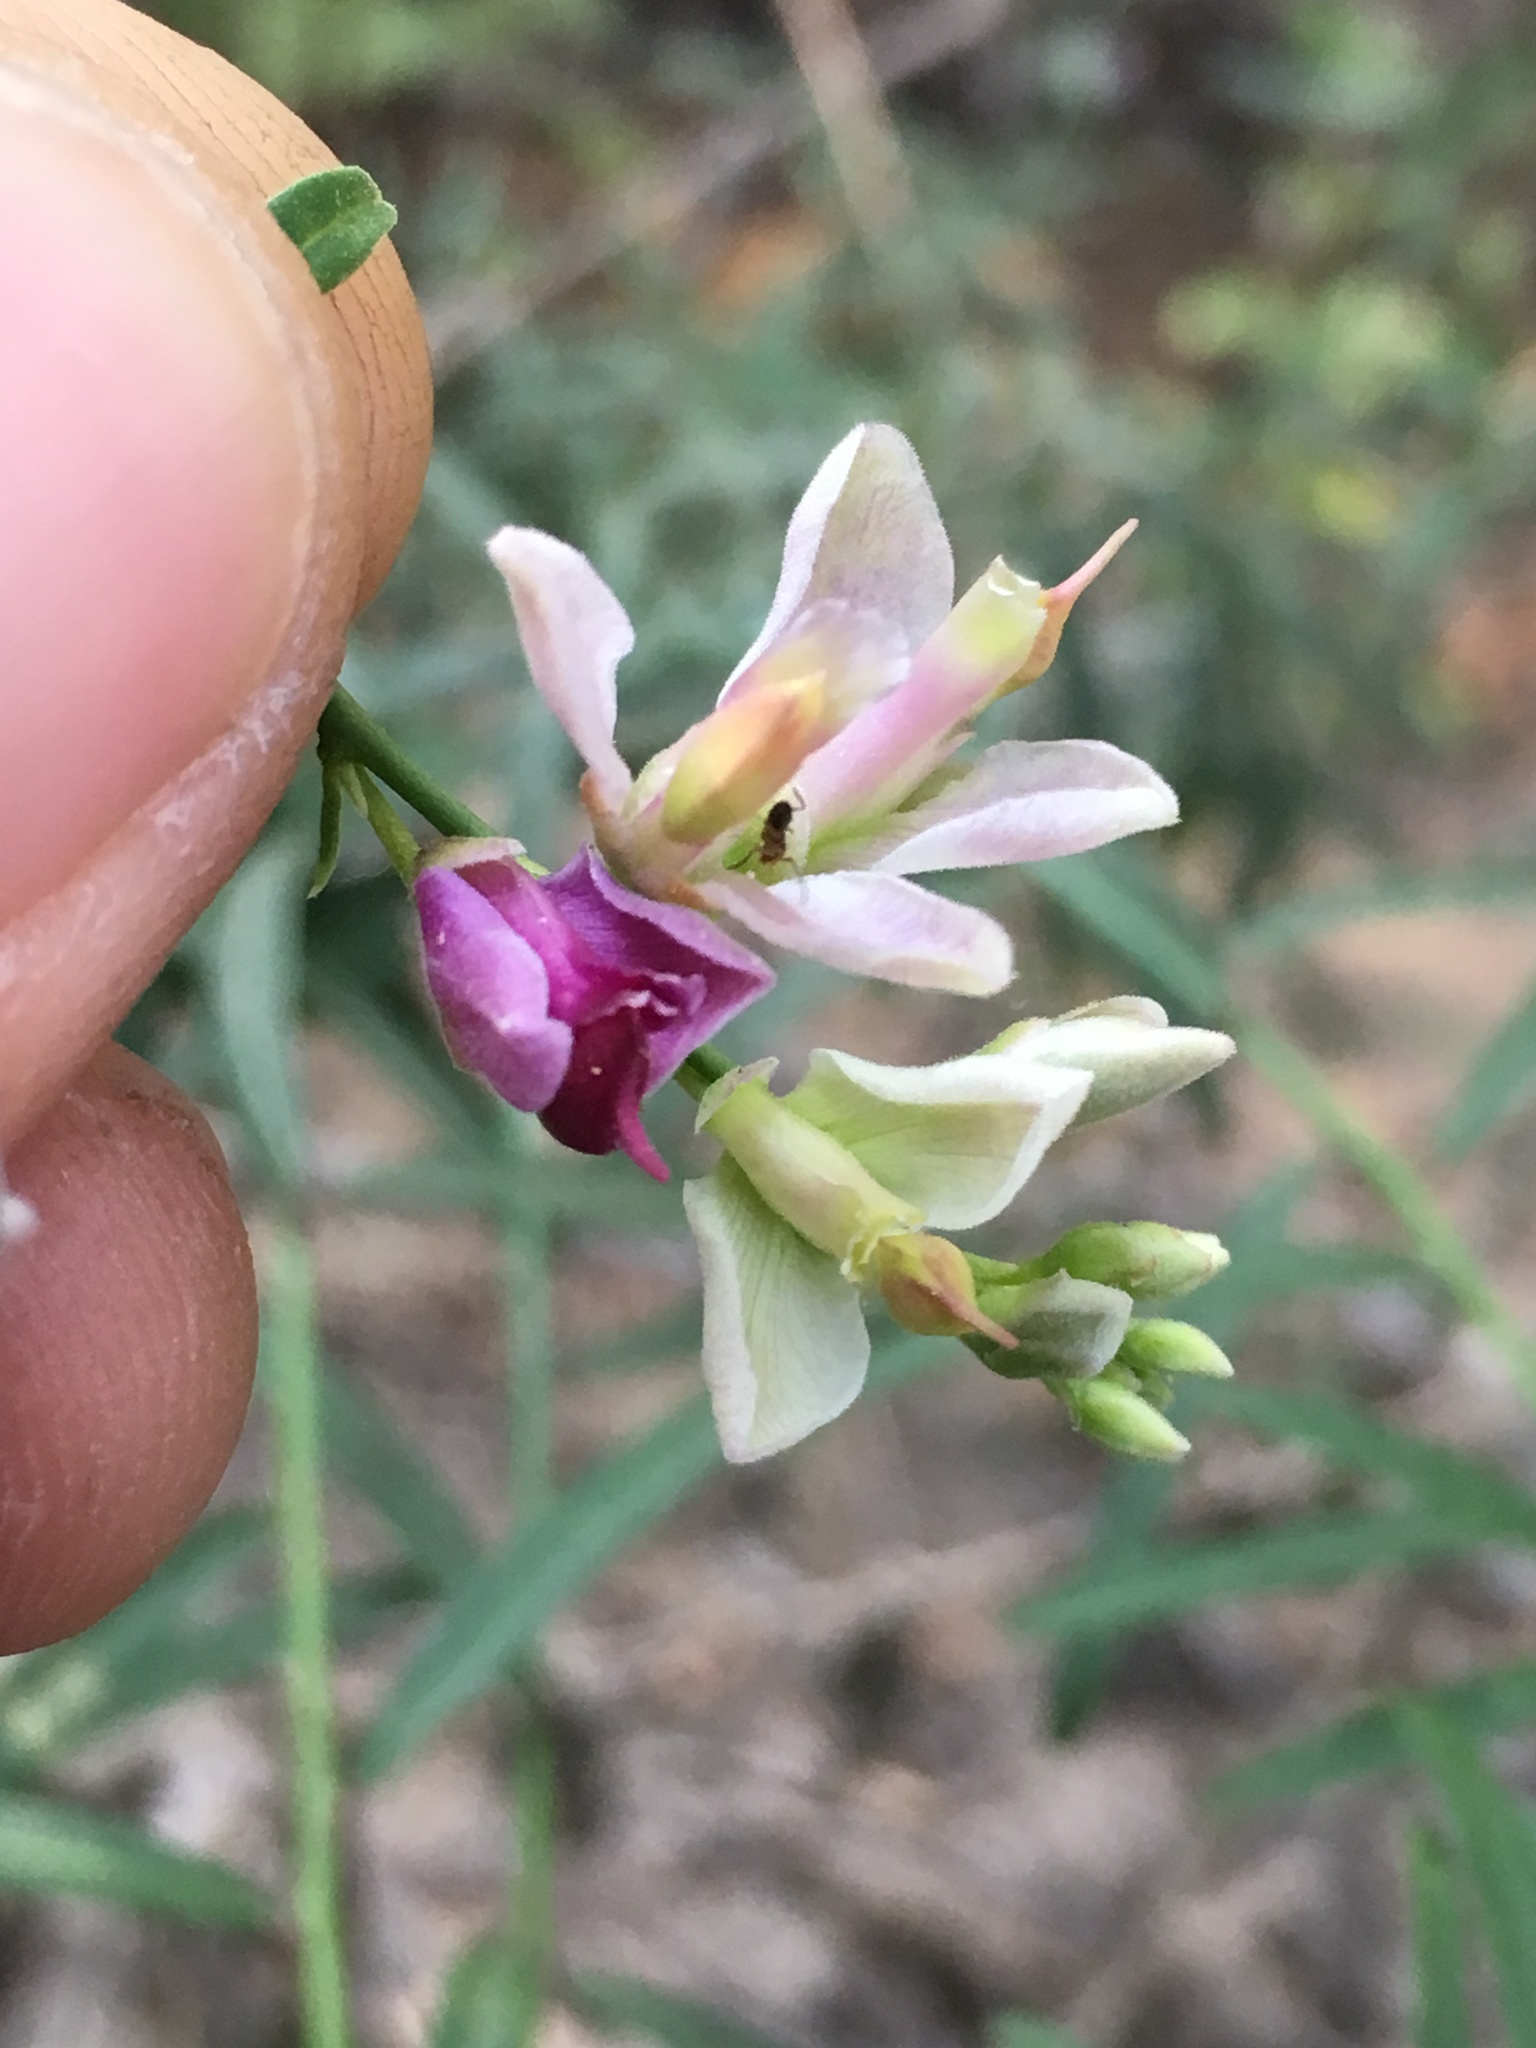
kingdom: Plantae
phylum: Tracheophyta
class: Magnoliopsida
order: Fabales
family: Polygalaceae
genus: Rhinotropis
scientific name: Rhinotropis cornuta
